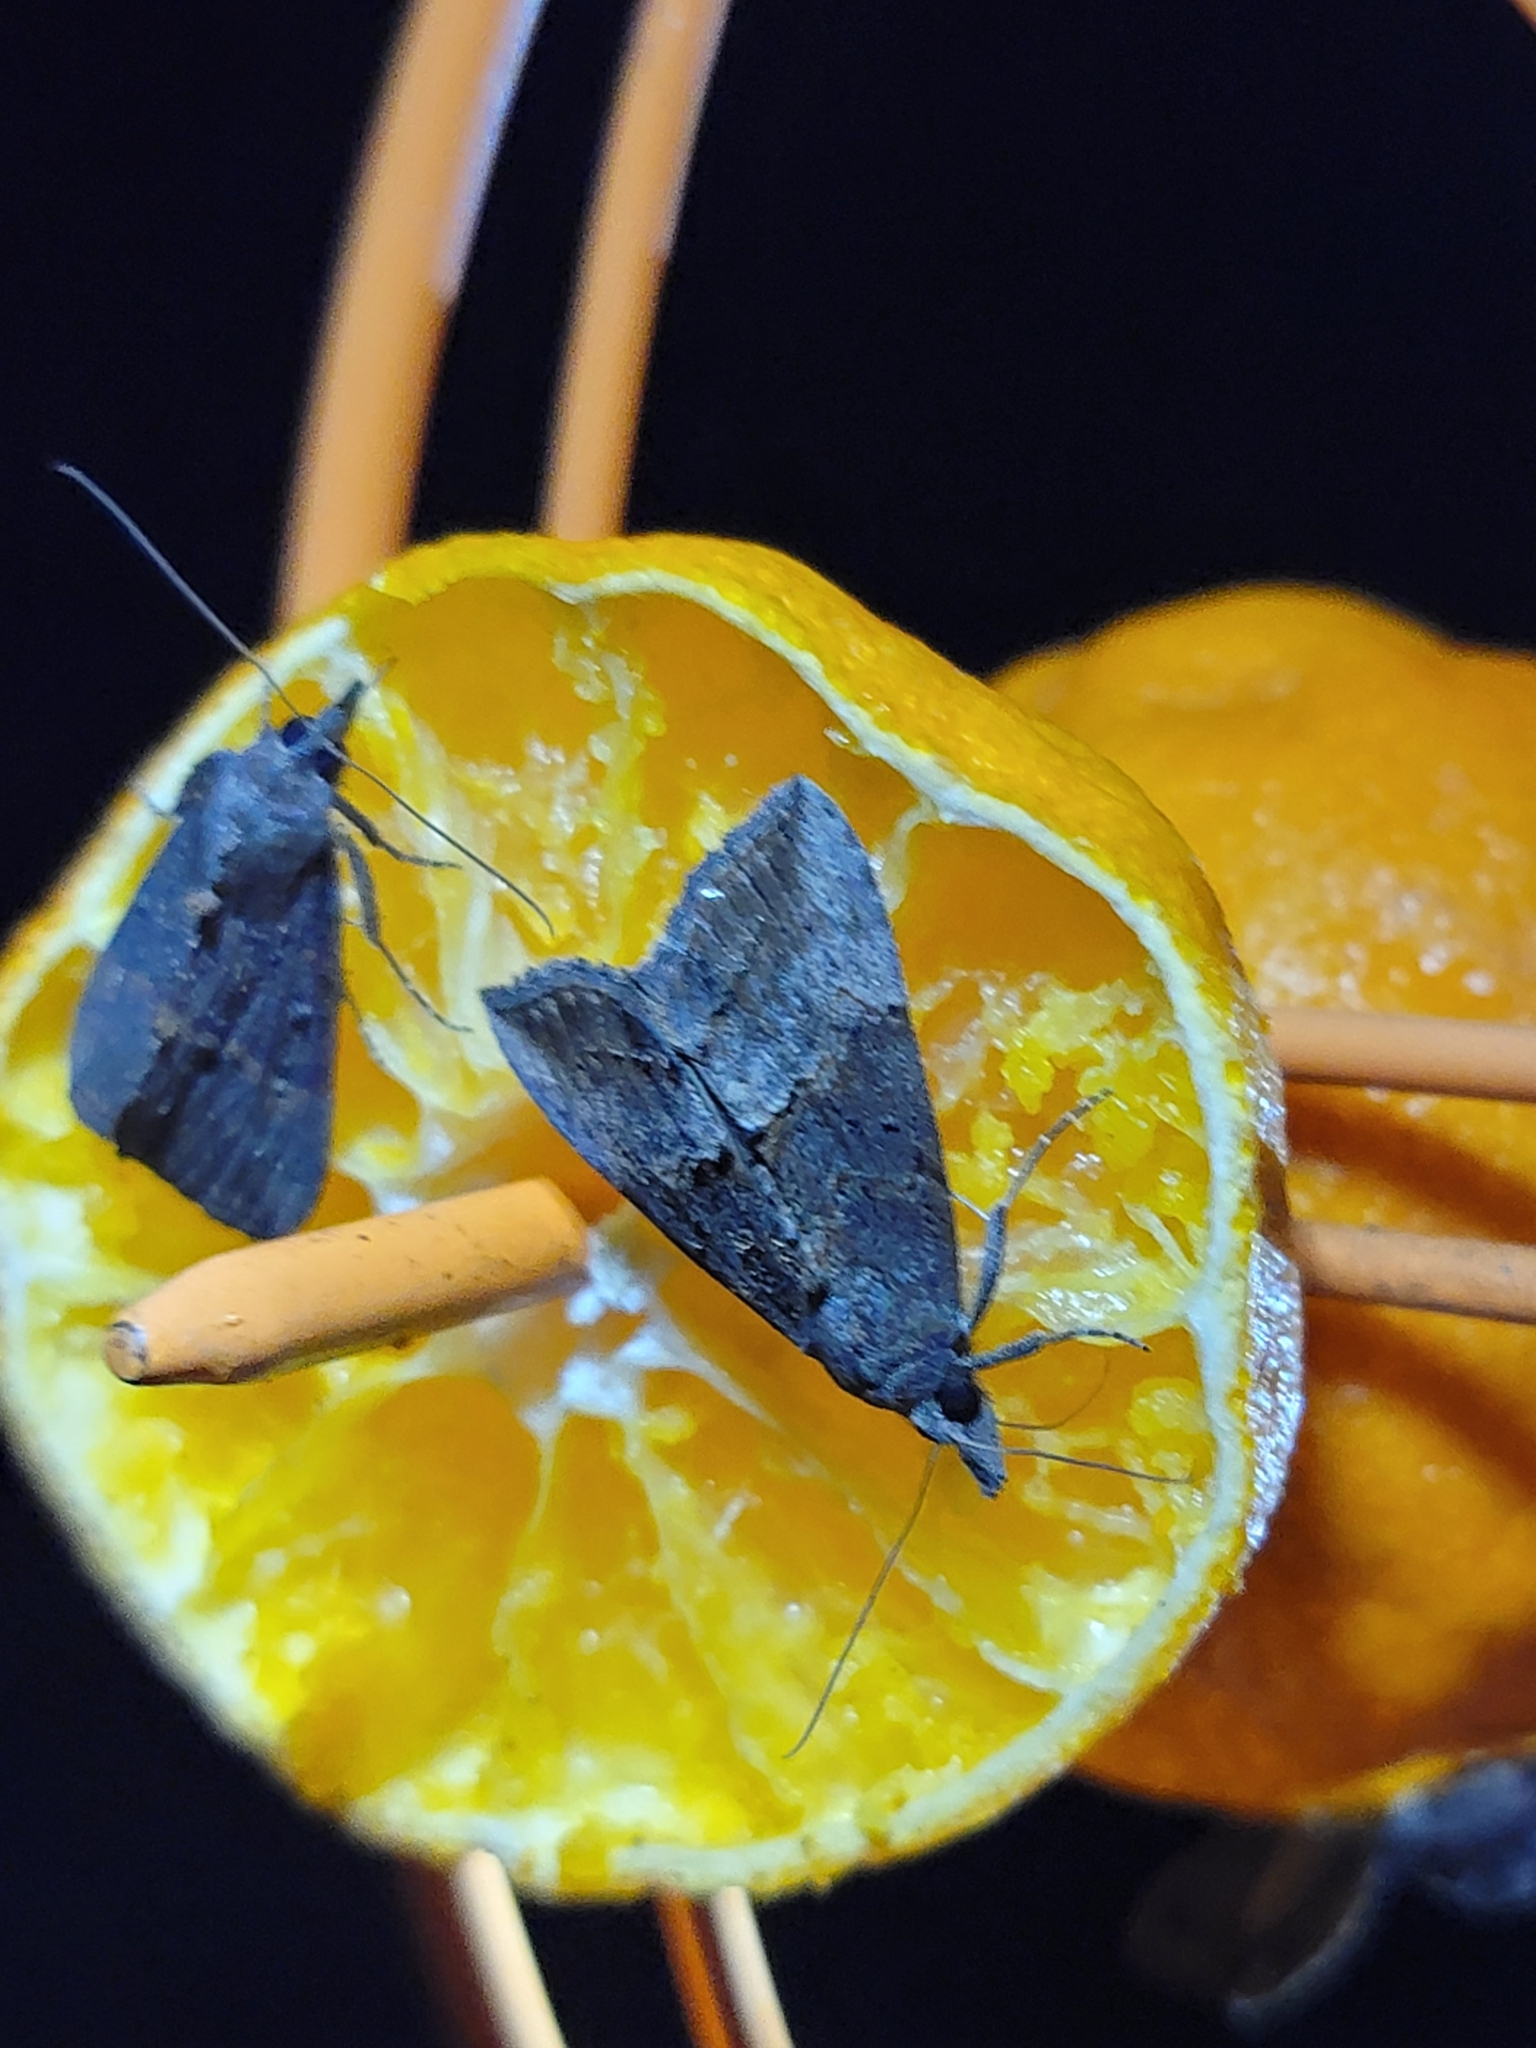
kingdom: Animalia
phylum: Arthropoda
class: Insecta
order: Lepidoptera
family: Erebidae
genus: Hypena
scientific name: Hypena scabra
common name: Green cloverworm
